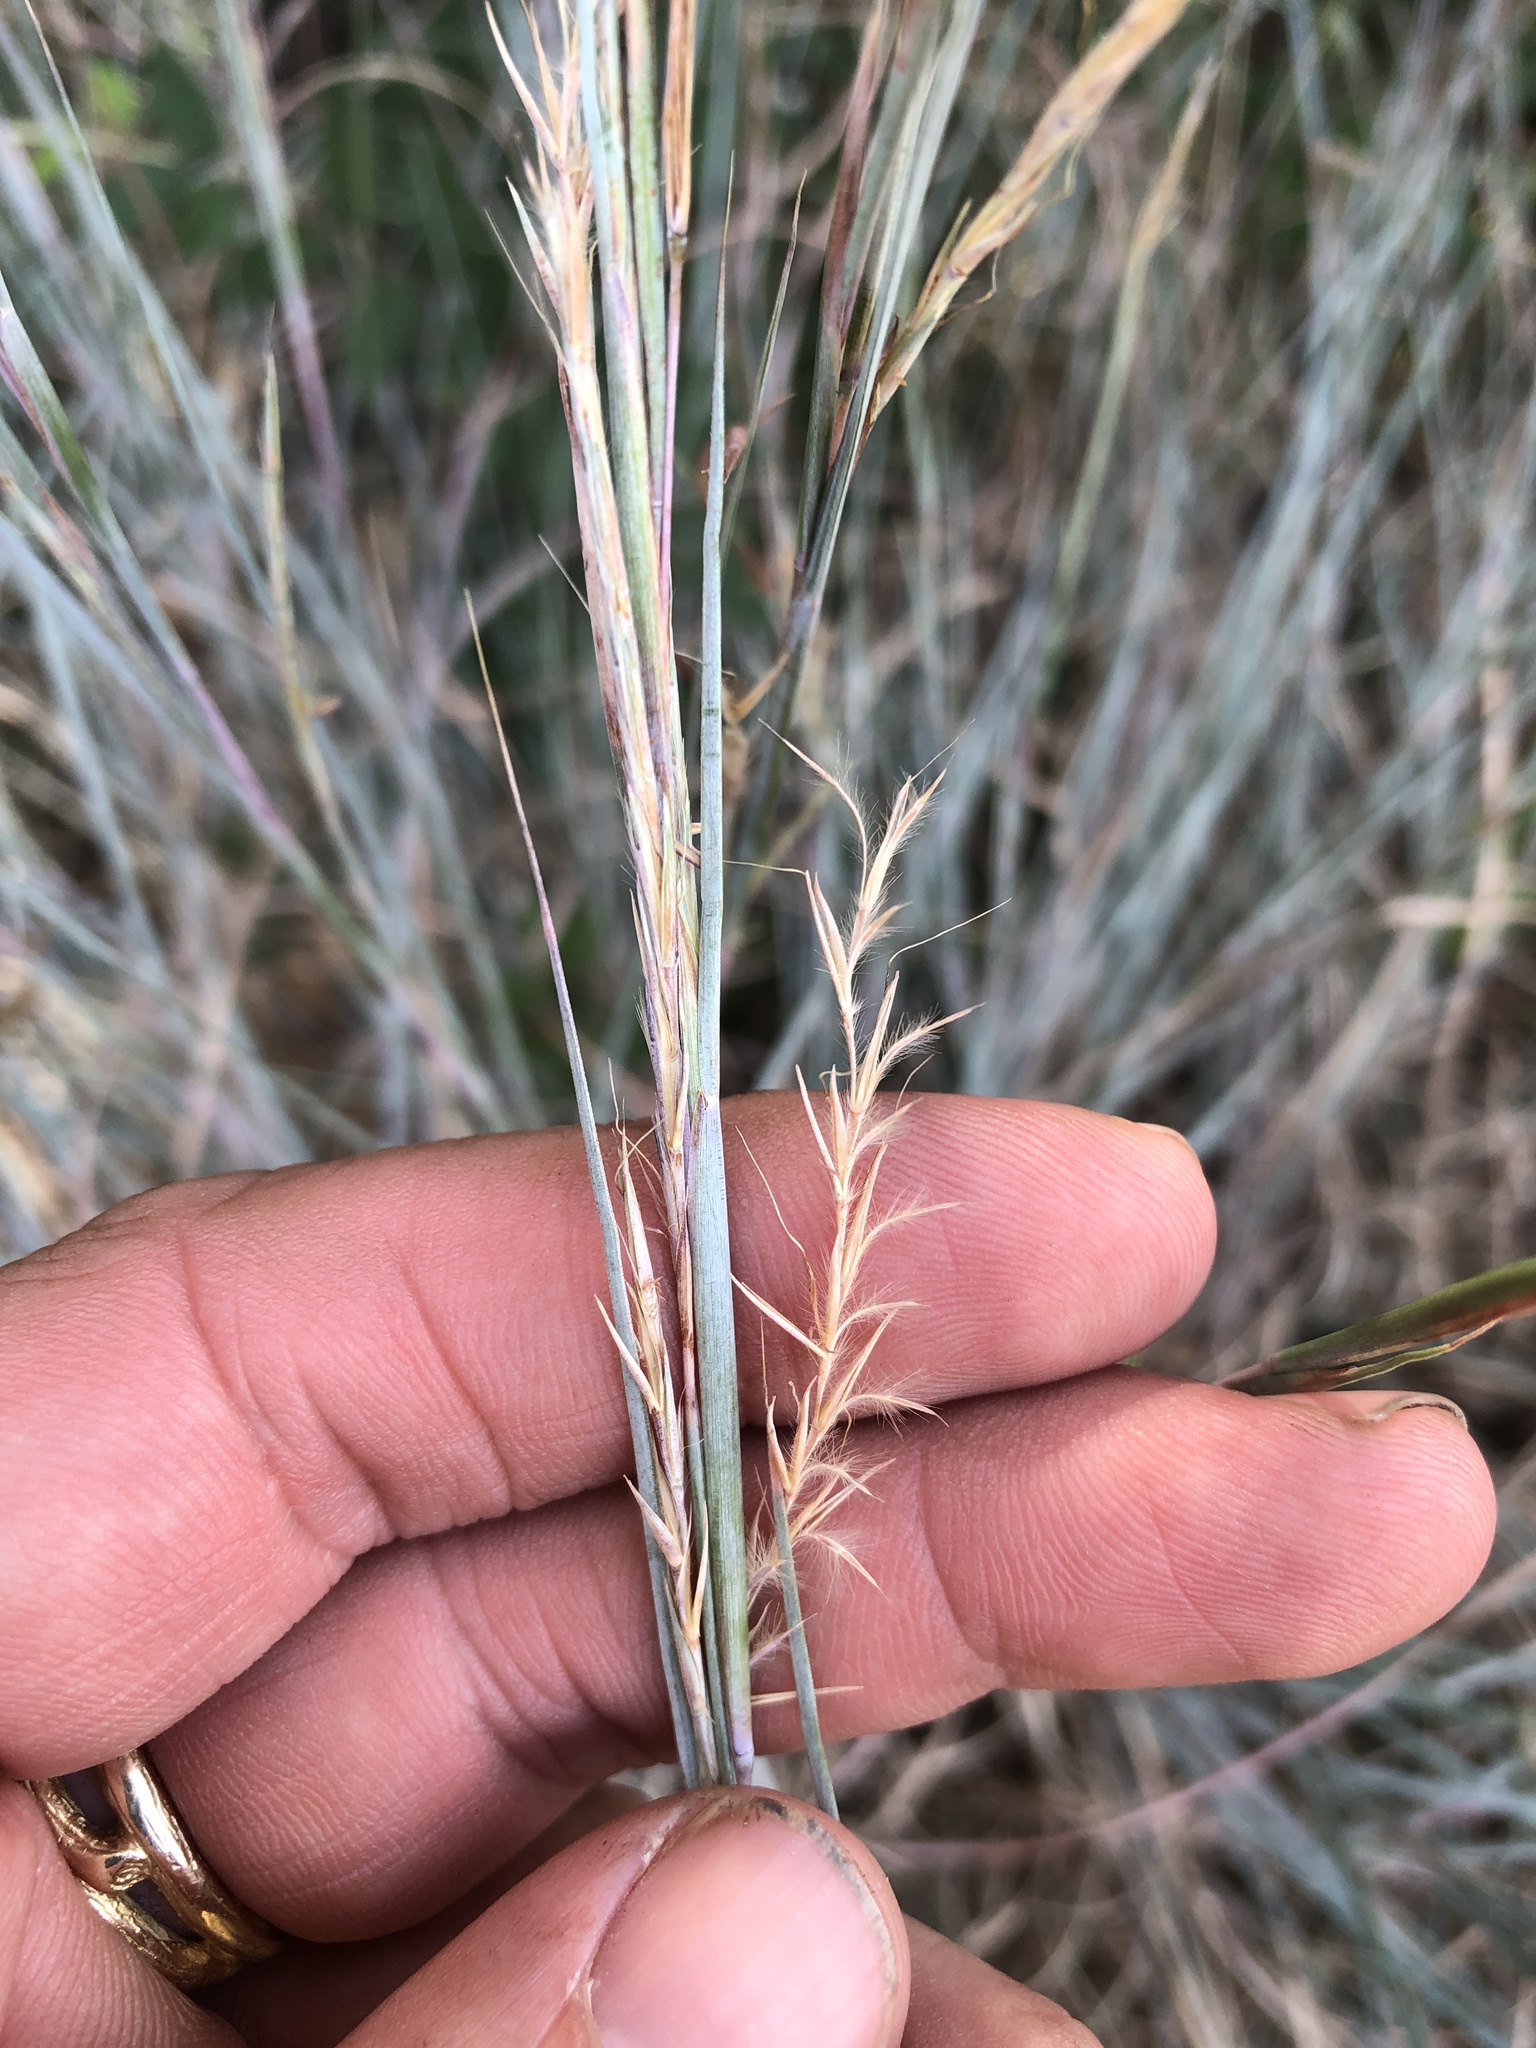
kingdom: Plantae
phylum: Tracheophyta
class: Liliopsida
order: Poales
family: Poaceae
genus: Schizachyrium
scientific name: Schizachyrium scoparium
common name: Little bluestem
